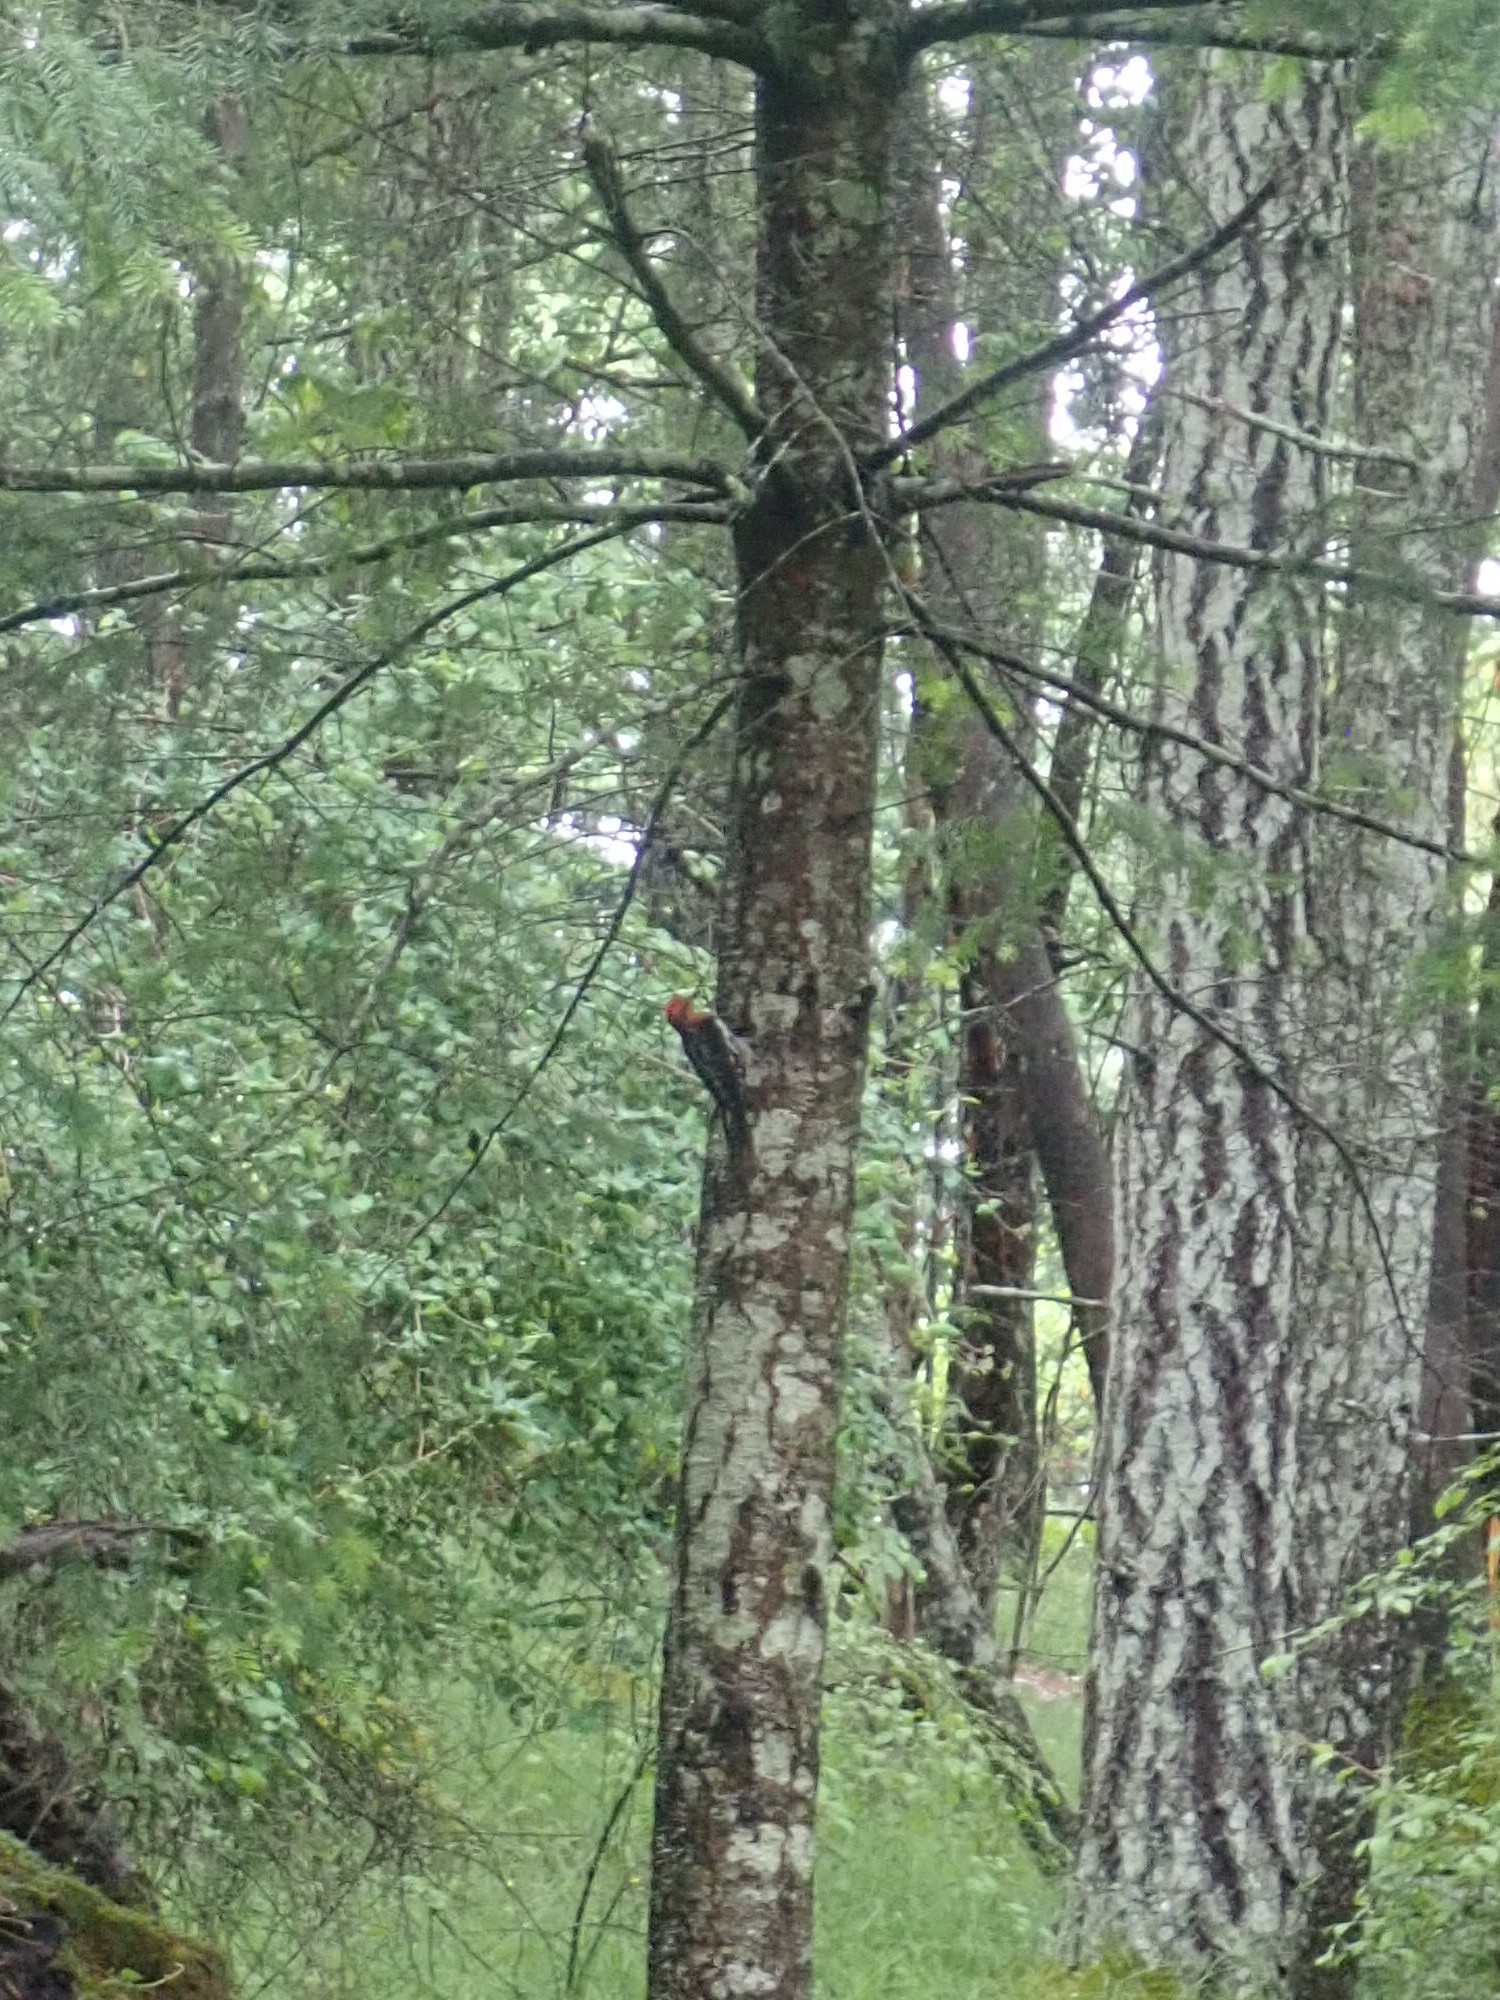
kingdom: Animalia
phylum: Chordata
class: Aves
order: Piciformes
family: Picidae
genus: Sphyrapicus
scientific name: Sphyrapicus ruber
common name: Red-breasted sapsucker
